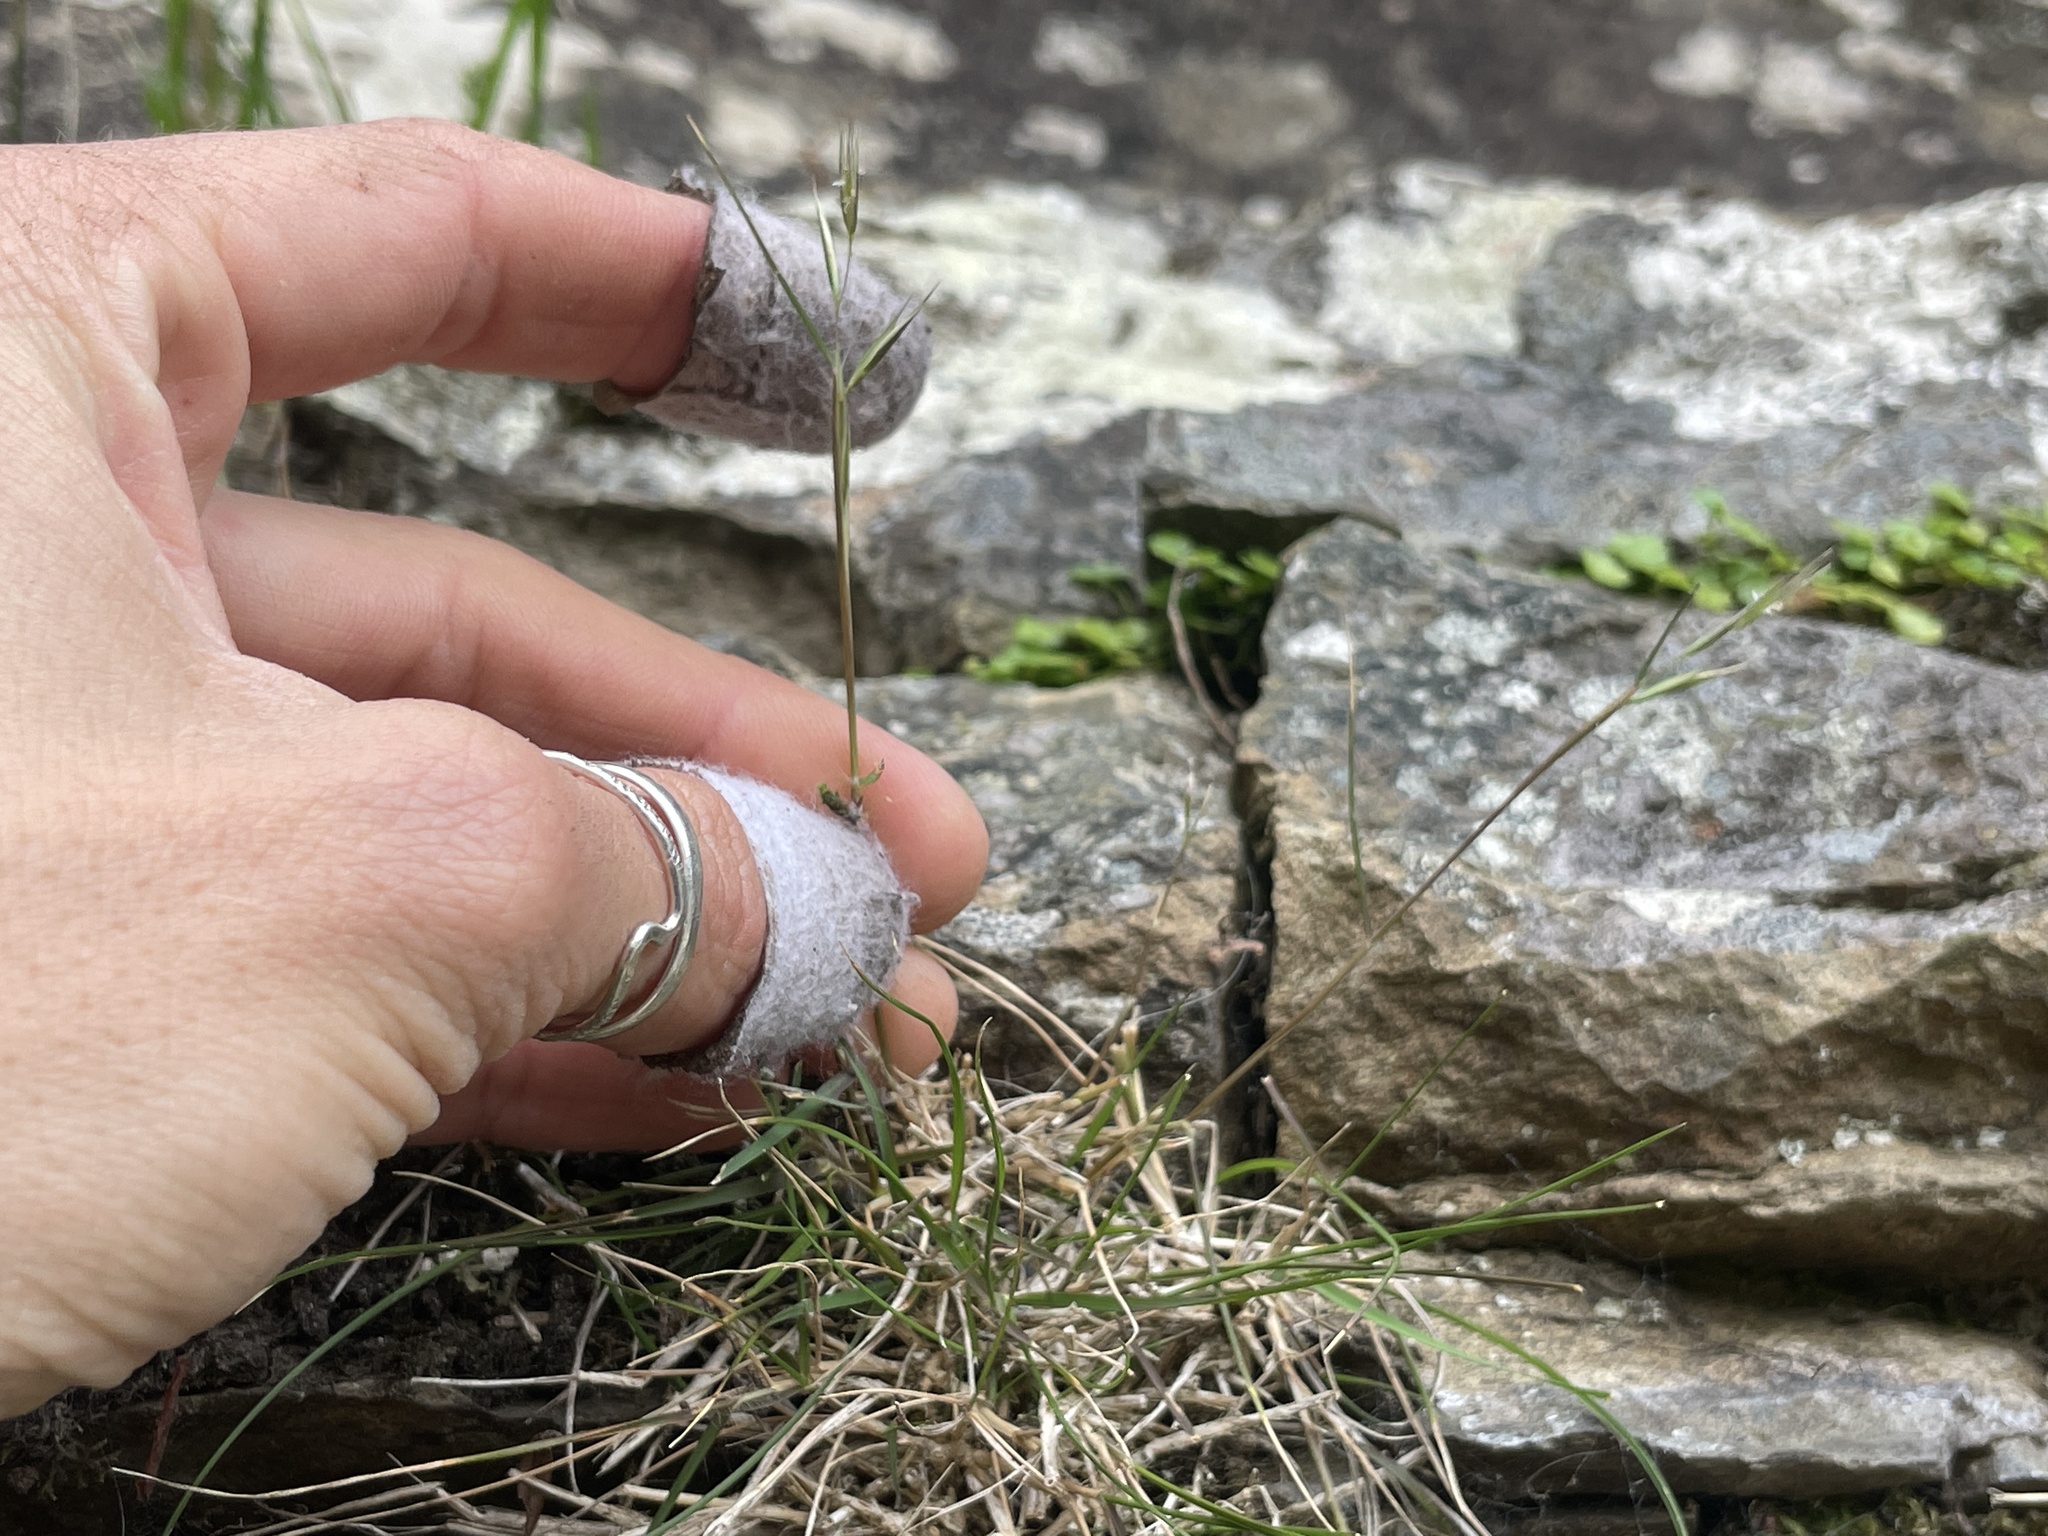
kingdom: Plantae
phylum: Tracheophyta
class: Liliopsida
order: Poales
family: Poaceae
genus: Rytidosperma
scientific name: Rytidosperma gracile
